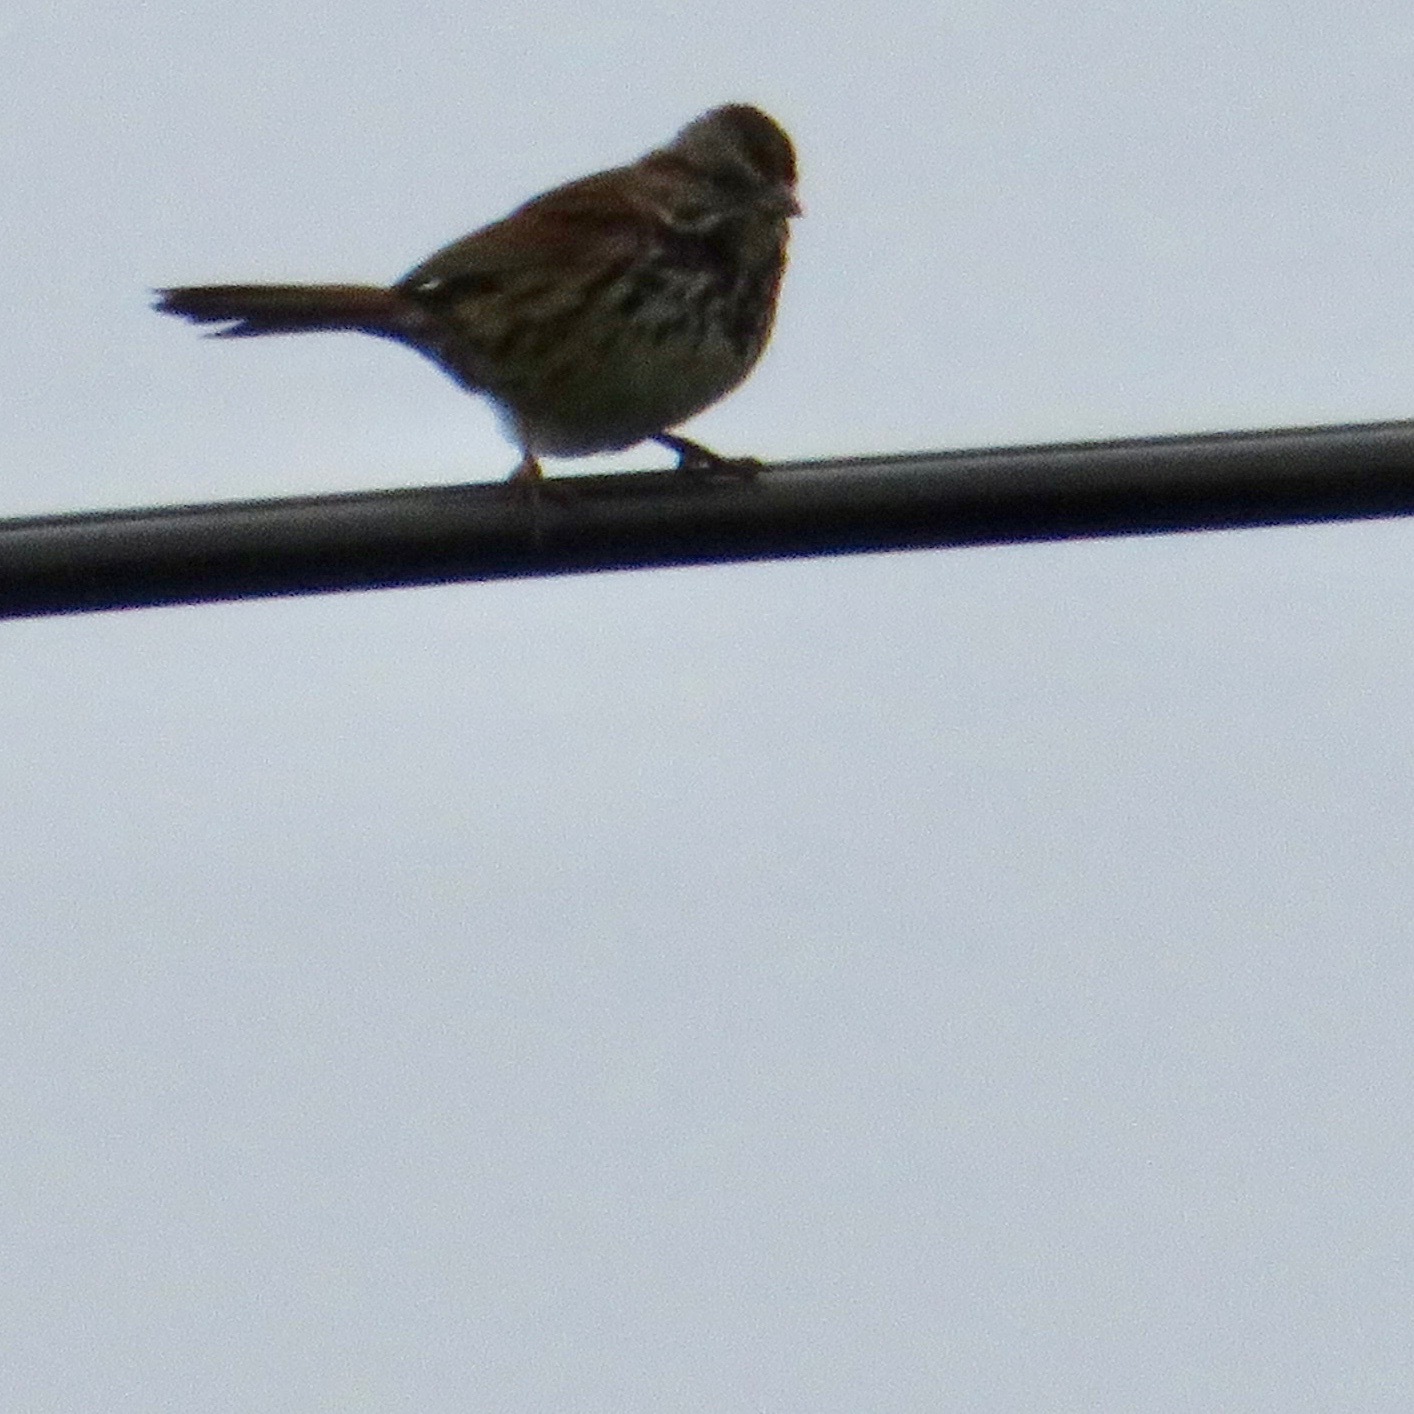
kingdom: Animalia
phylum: Chordata
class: Aves
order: Passeriformes
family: Passerellidae
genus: Melospiza
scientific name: Melospiza melodia
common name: Song sparrow
